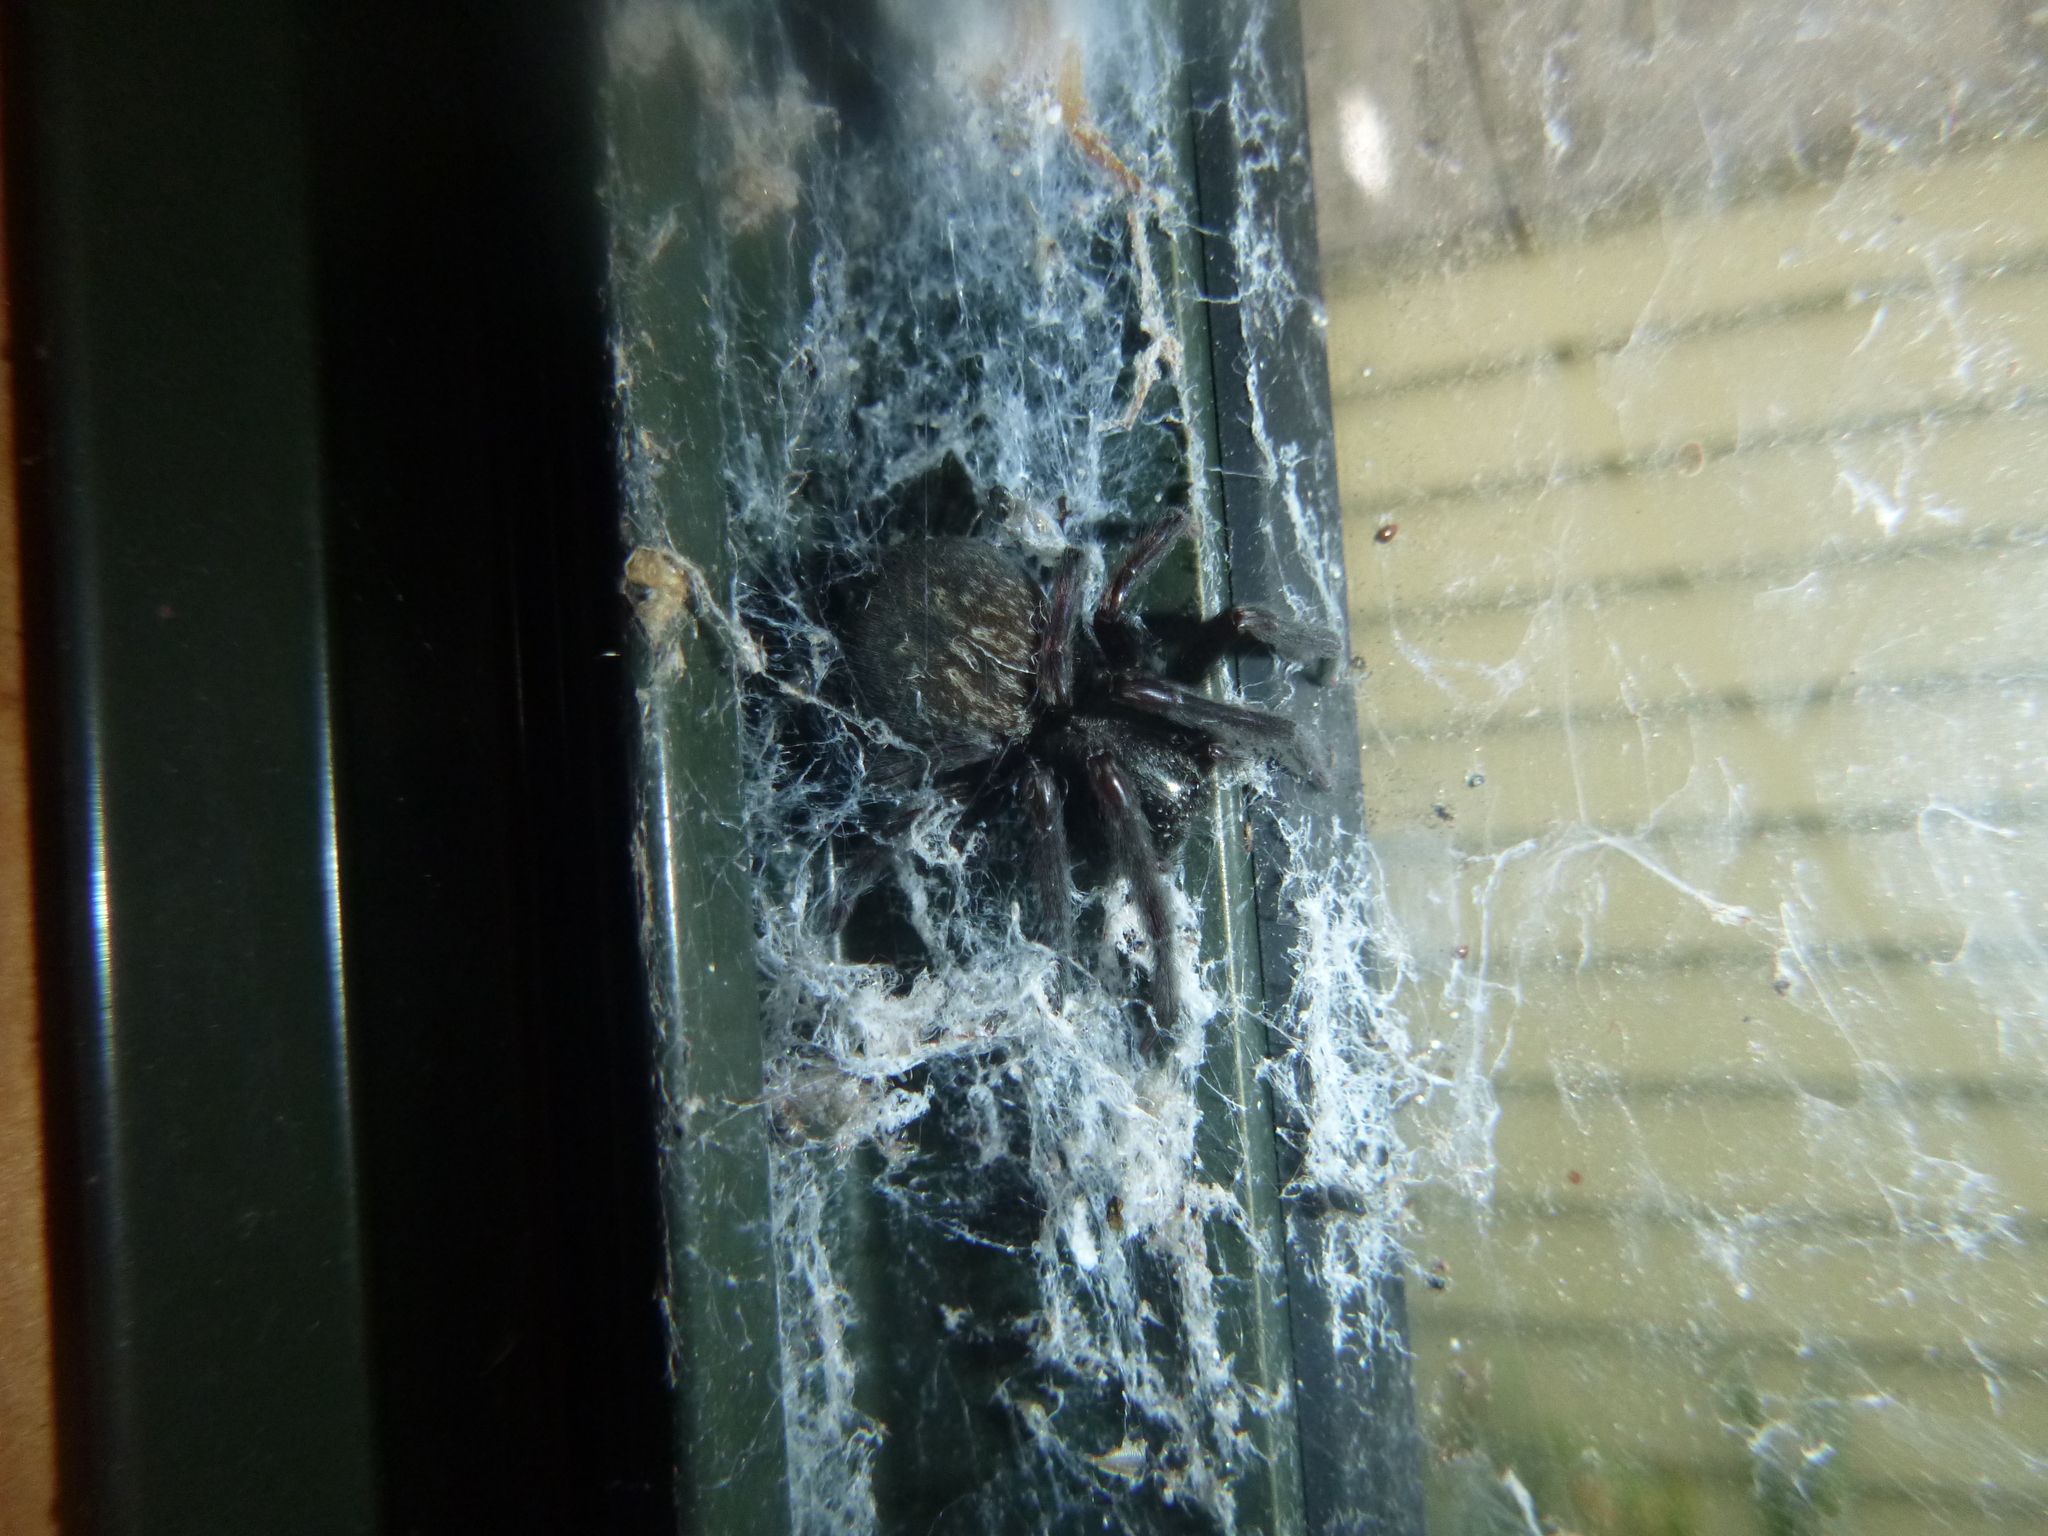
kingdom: Animalia
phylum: Arthropoda
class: Arachnida
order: Araneae
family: Desidae
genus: Badumna
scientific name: Badumna longinqua
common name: Gray house spider
